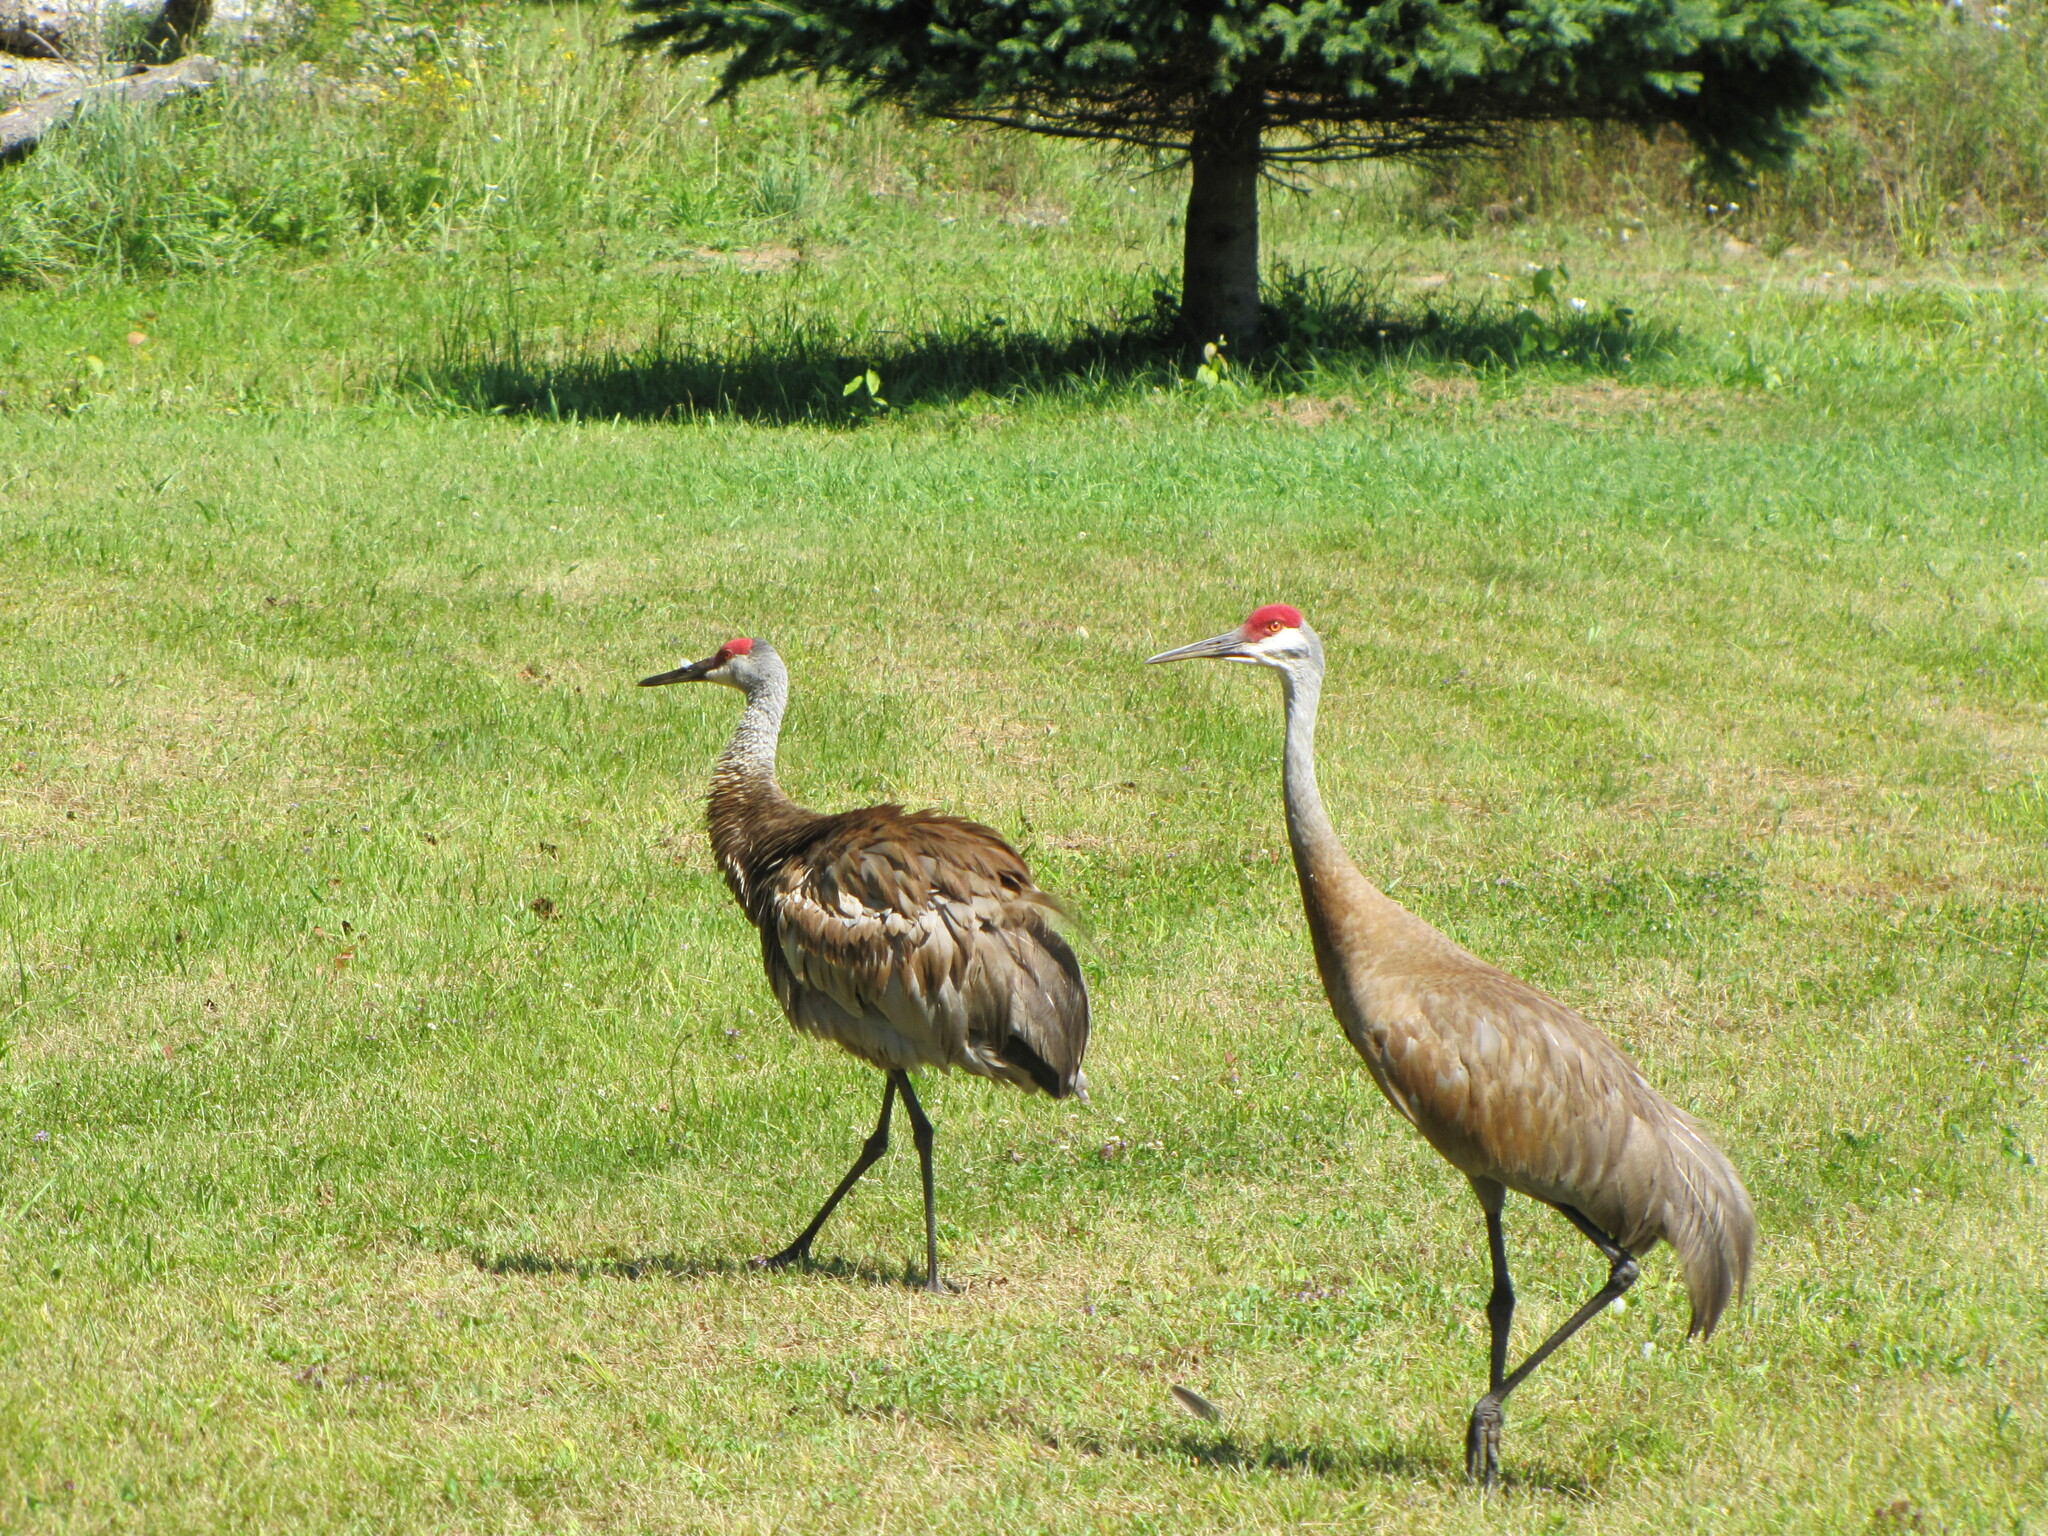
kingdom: Animalia
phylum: Chordata
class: Aves
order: Gruiformes
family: Gruidae
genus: Grus
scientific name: Grus canadensis
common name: Sandhill crane
